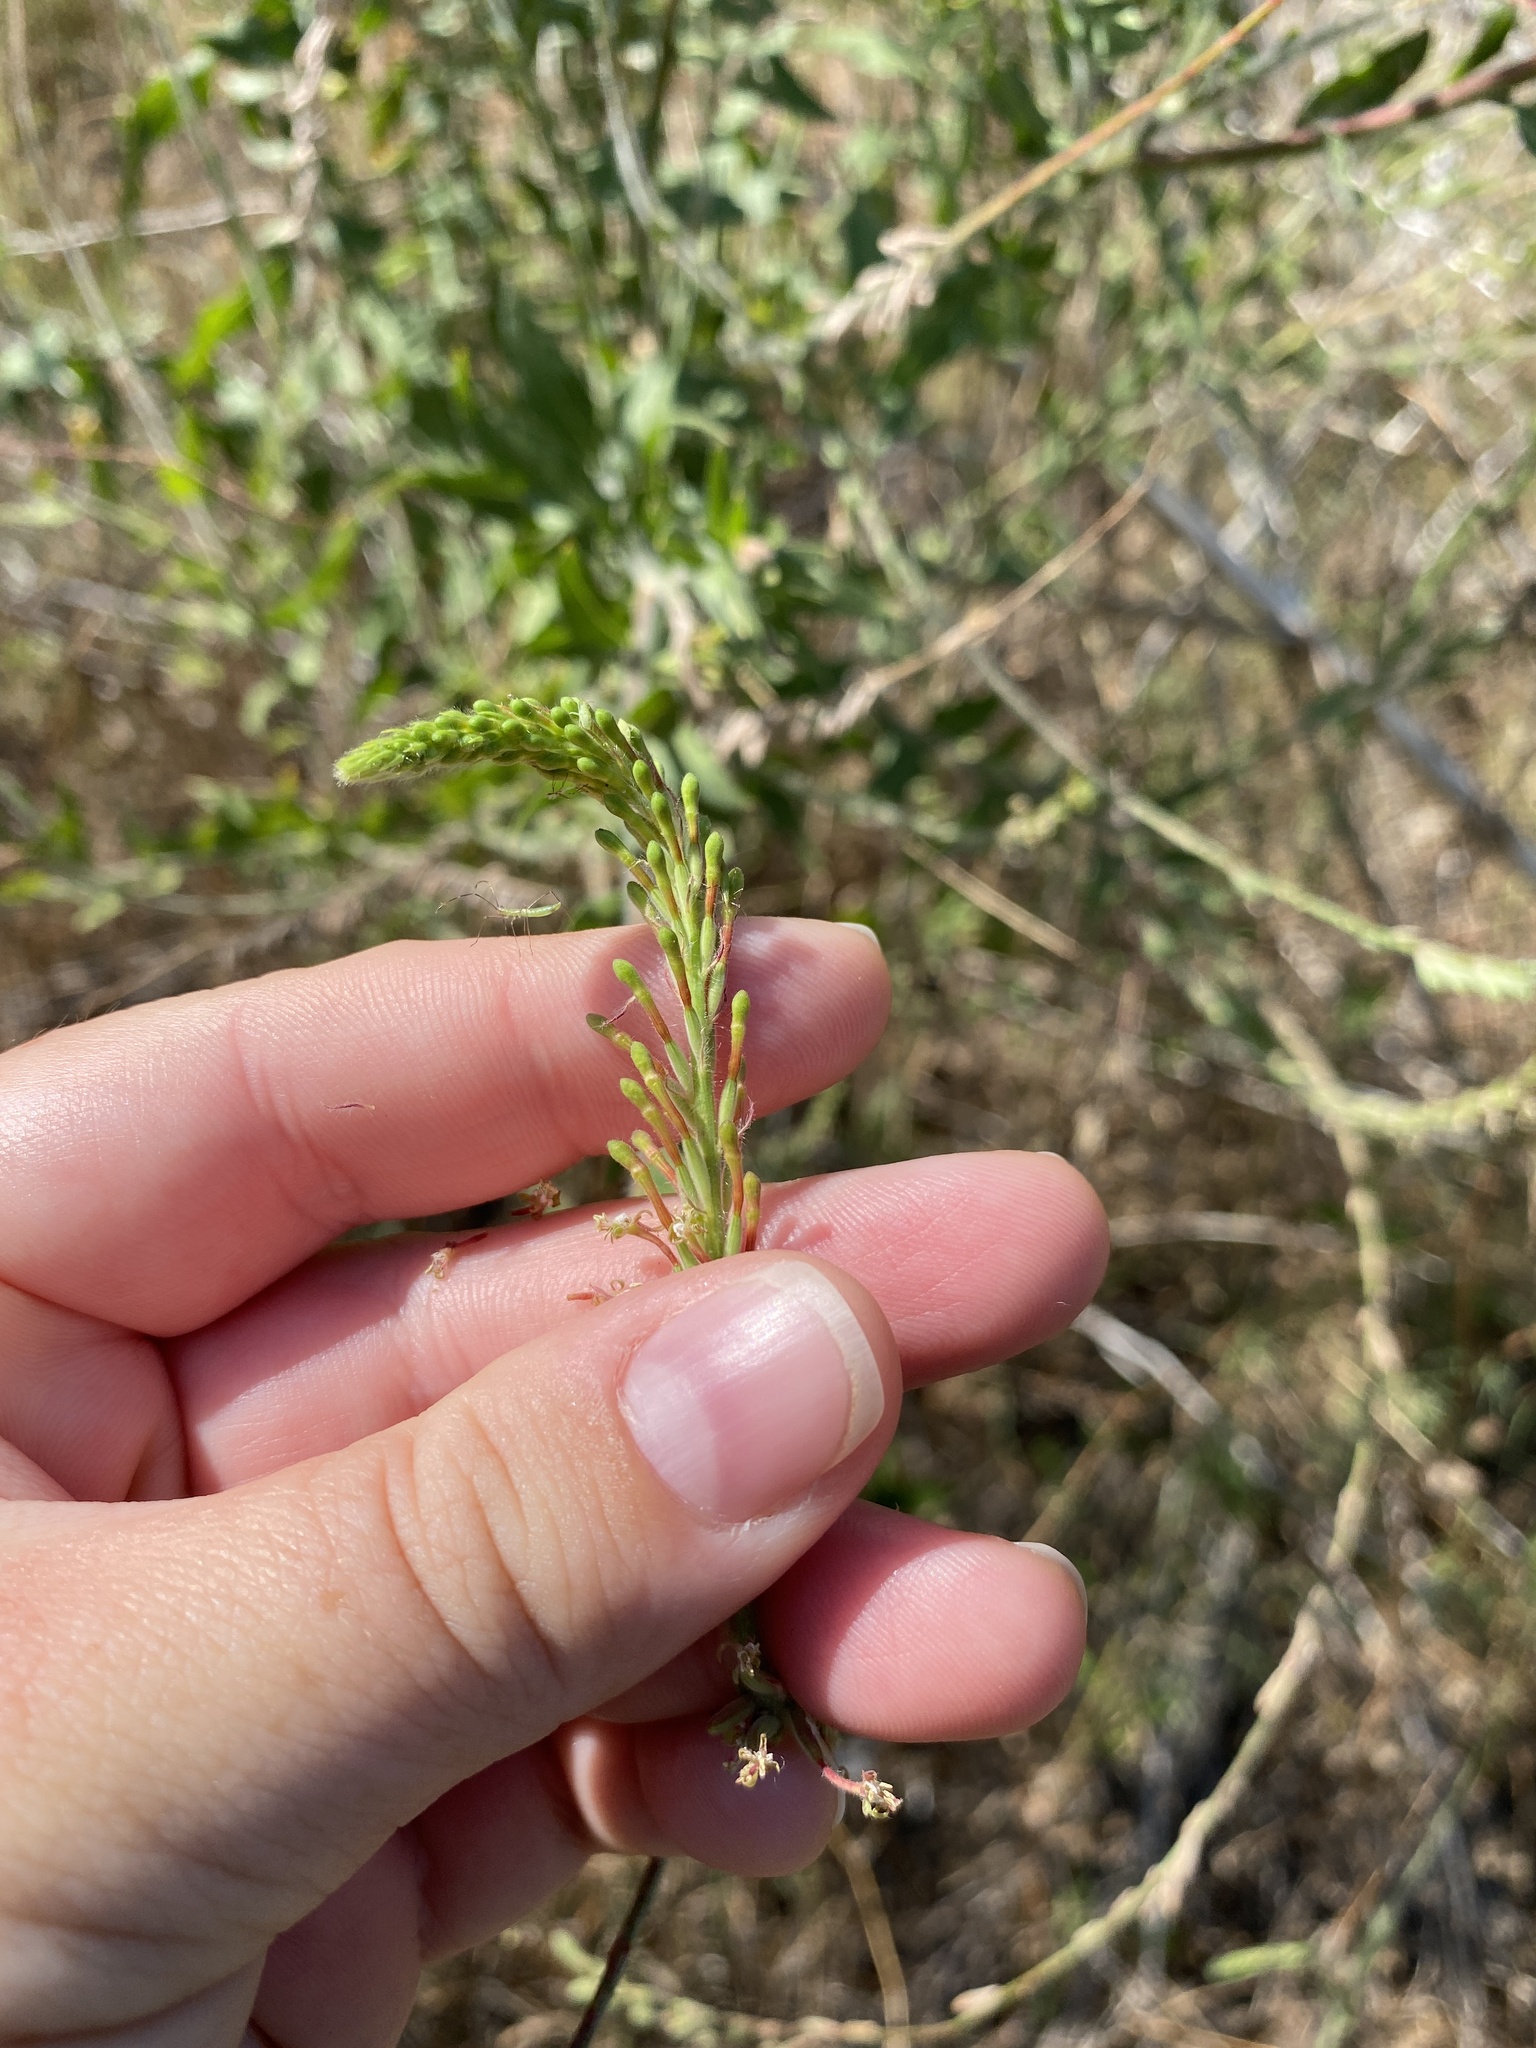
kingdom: Plantae
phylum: Tracheophyta
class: Magnoliopsida
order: Myrtales
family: Onagraceae
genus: Oenothera
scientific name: Oenothera curtiflora
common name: Velvetweed
